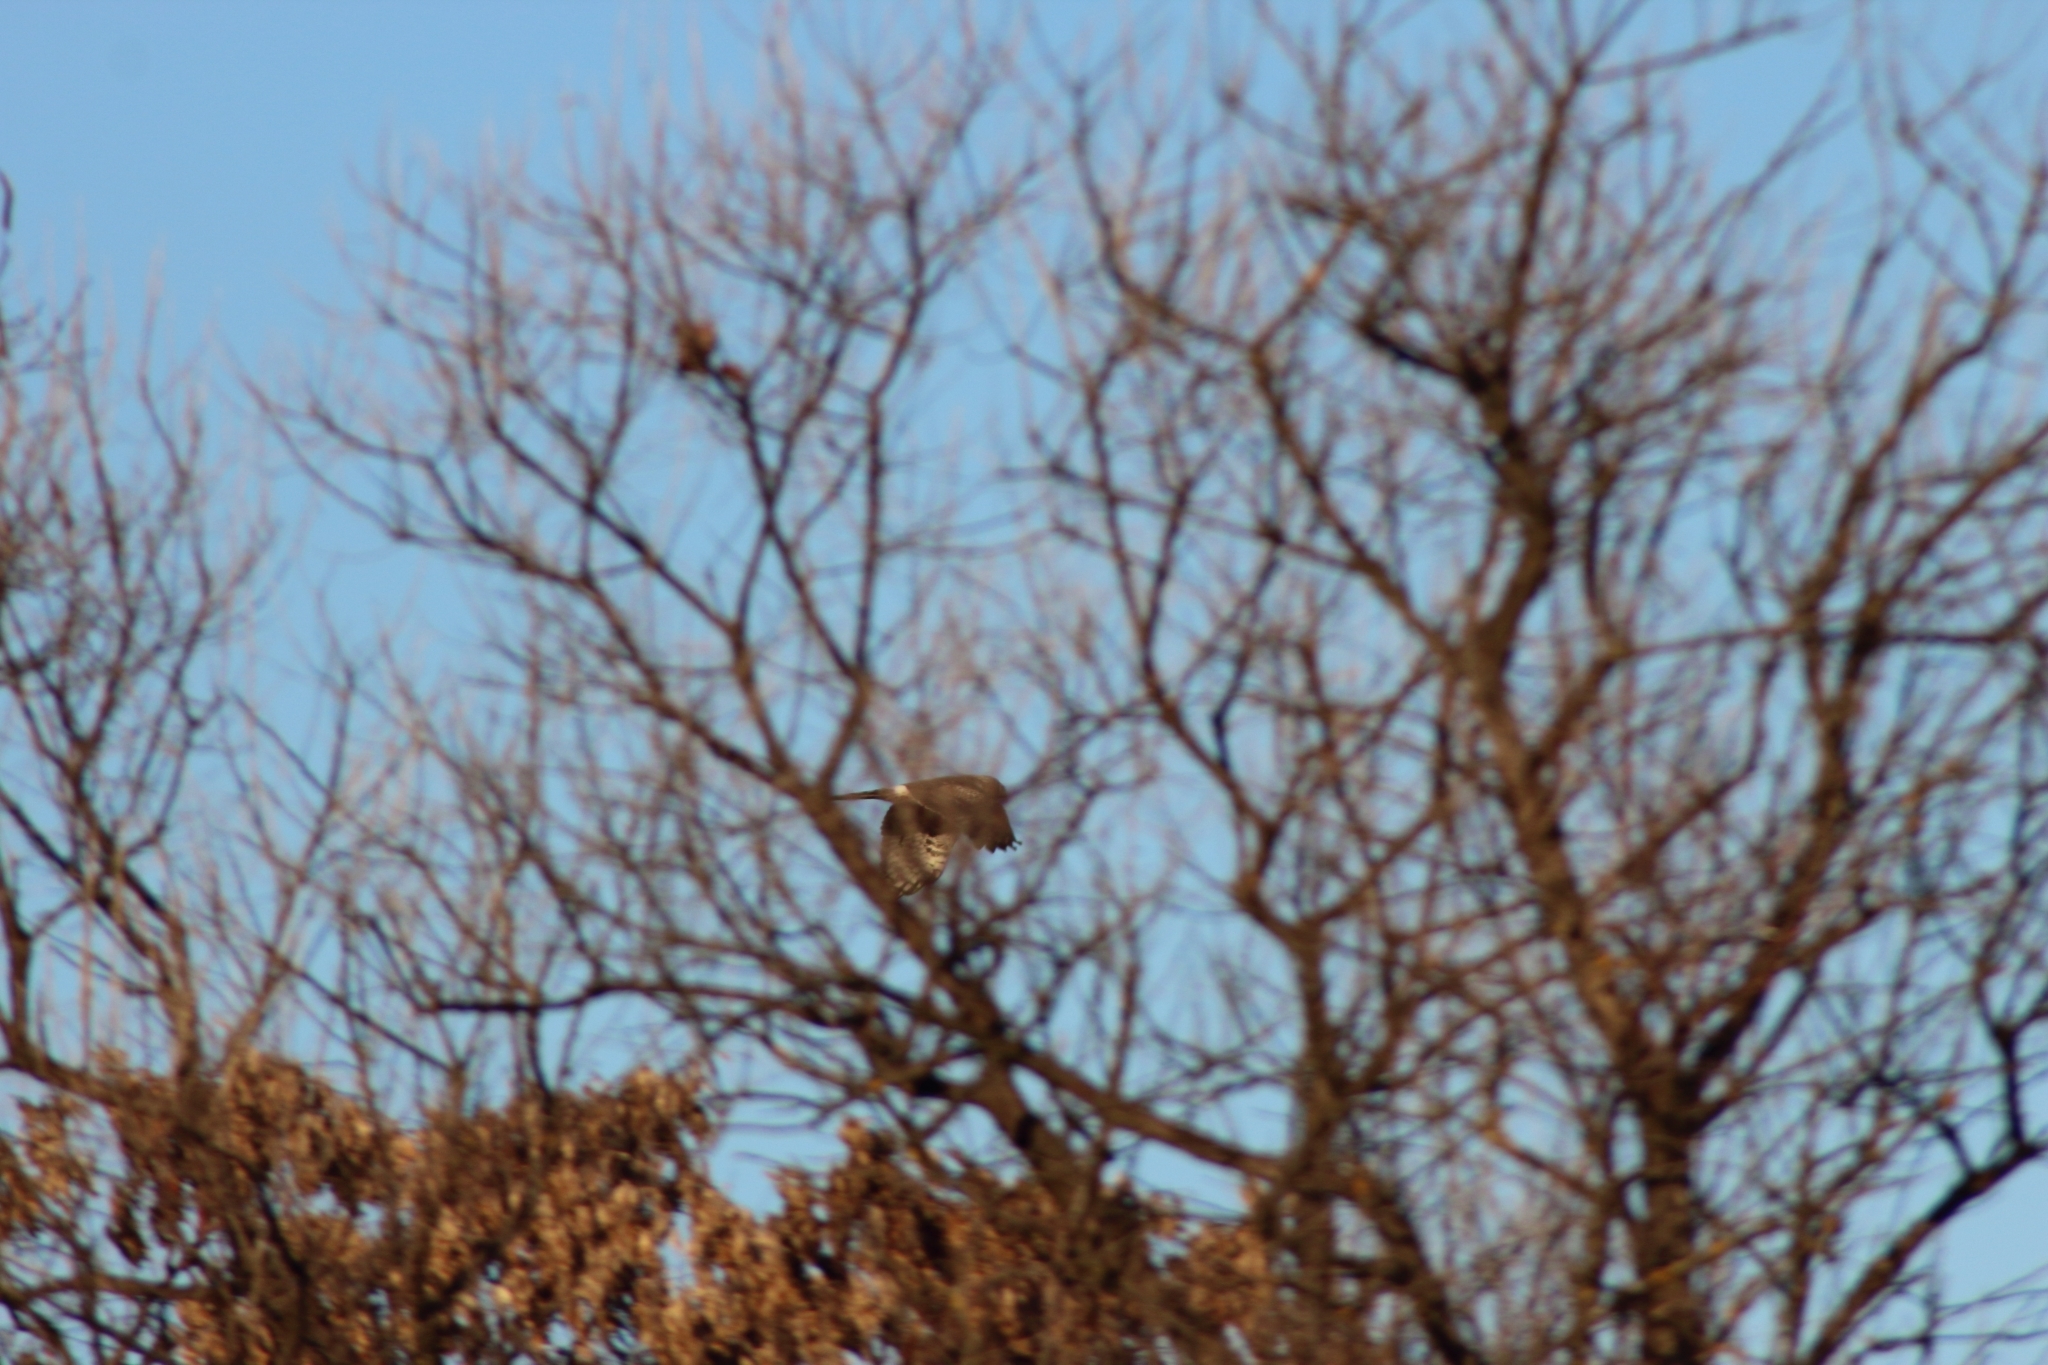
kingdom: Animalia
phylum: Chordata
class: Aves
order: Accipitriformes
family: Accipitridae
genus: Circus
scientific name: Circus cyaneus
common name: Hen harrier
